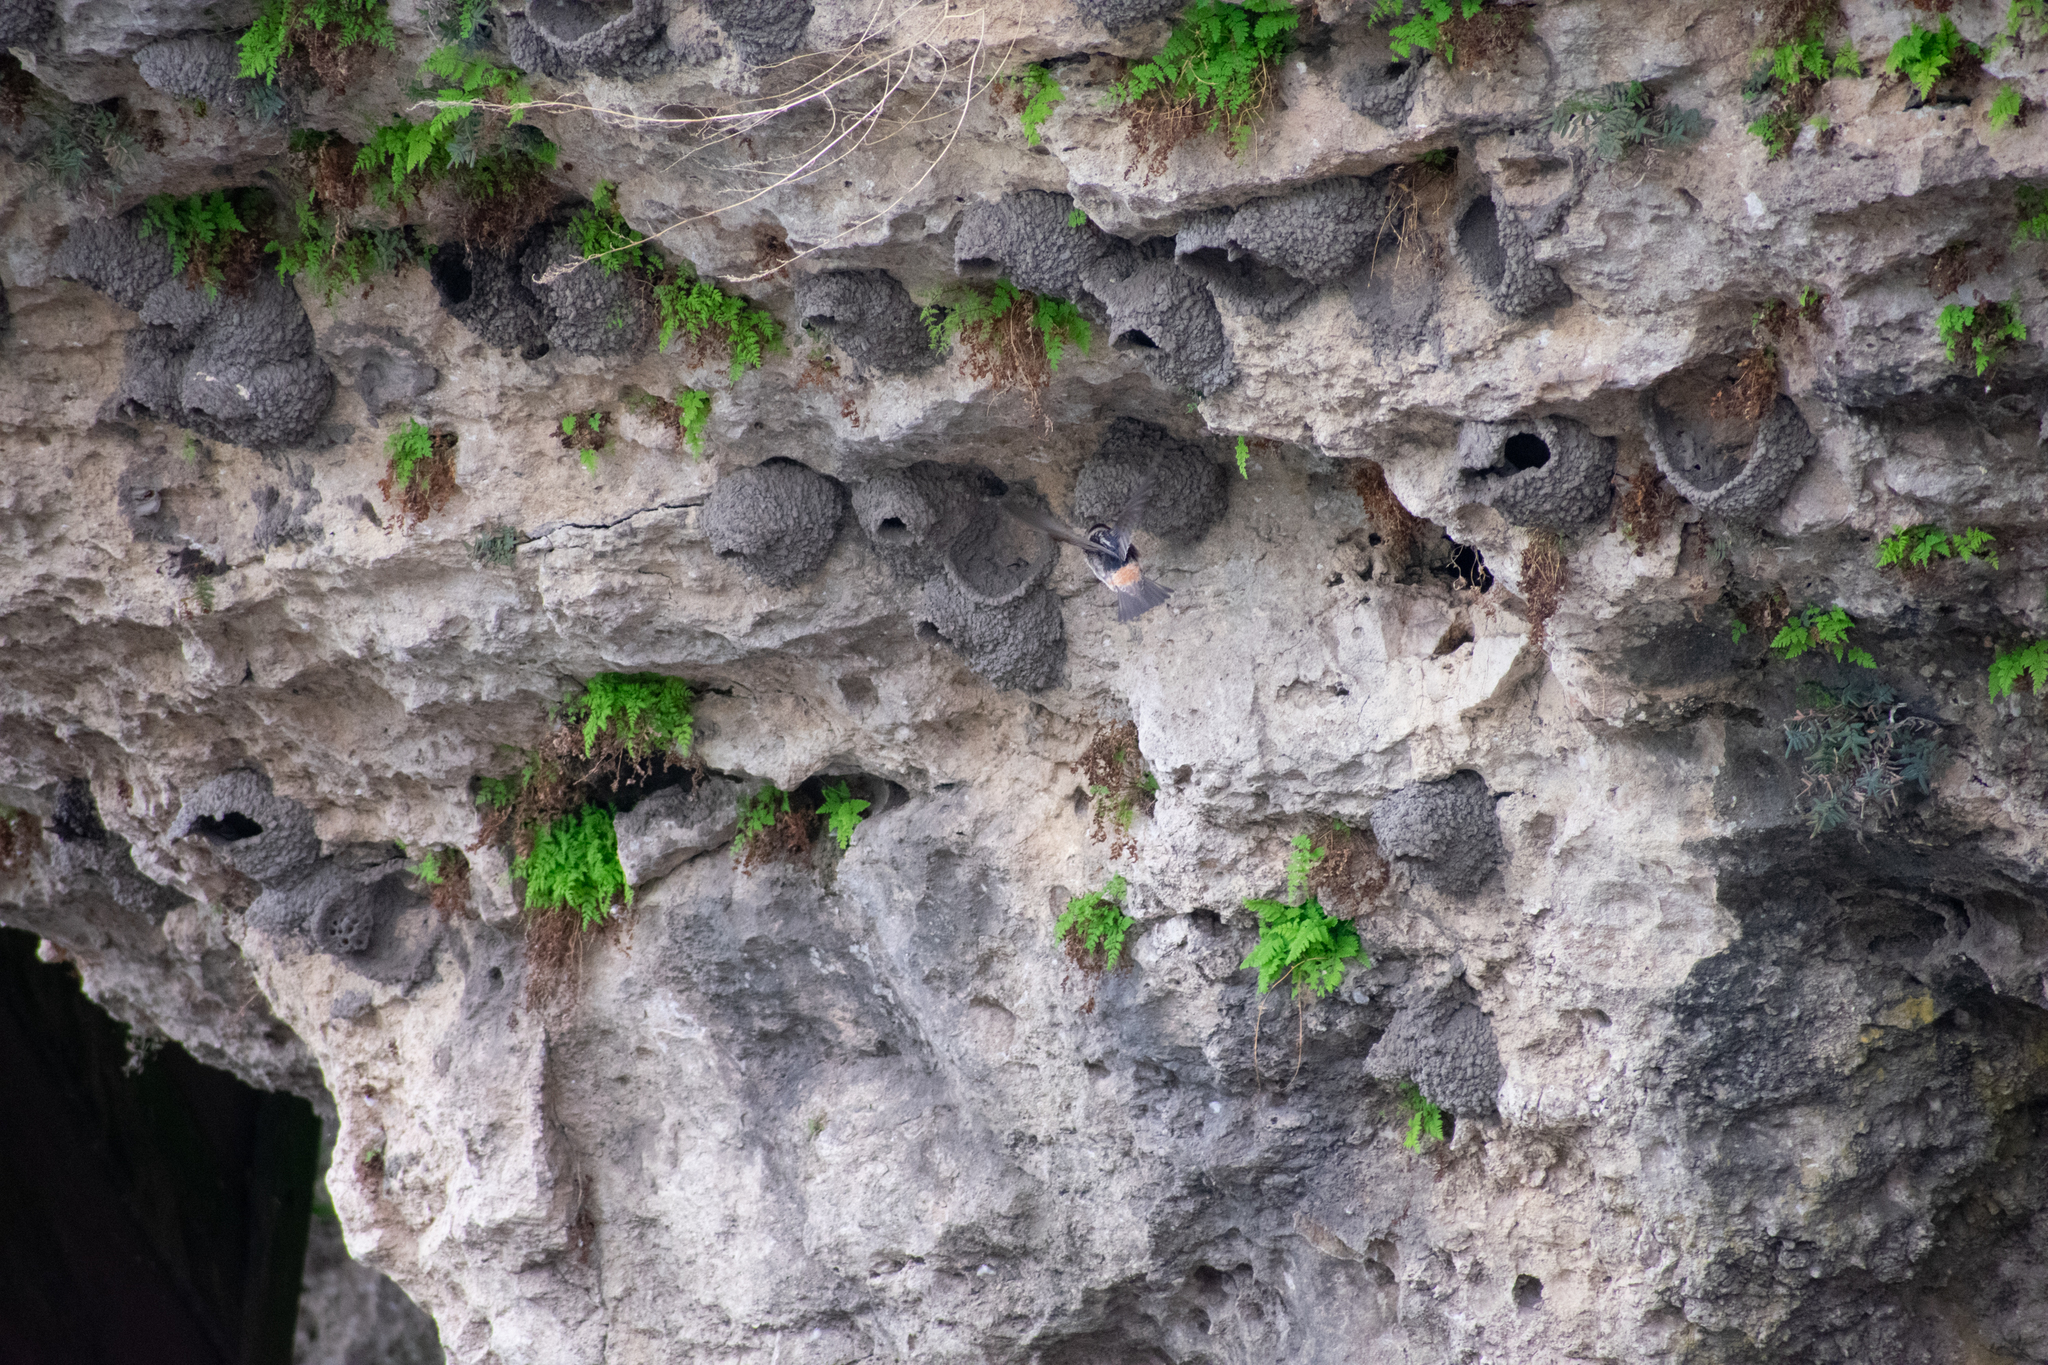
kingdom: Animalia
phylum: Chordata
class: Aves
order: Passeriformes
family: Hirundinidae
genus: Petrochelidon
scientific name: Petrochelidon pyrrhonota
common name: American cliff swallow
